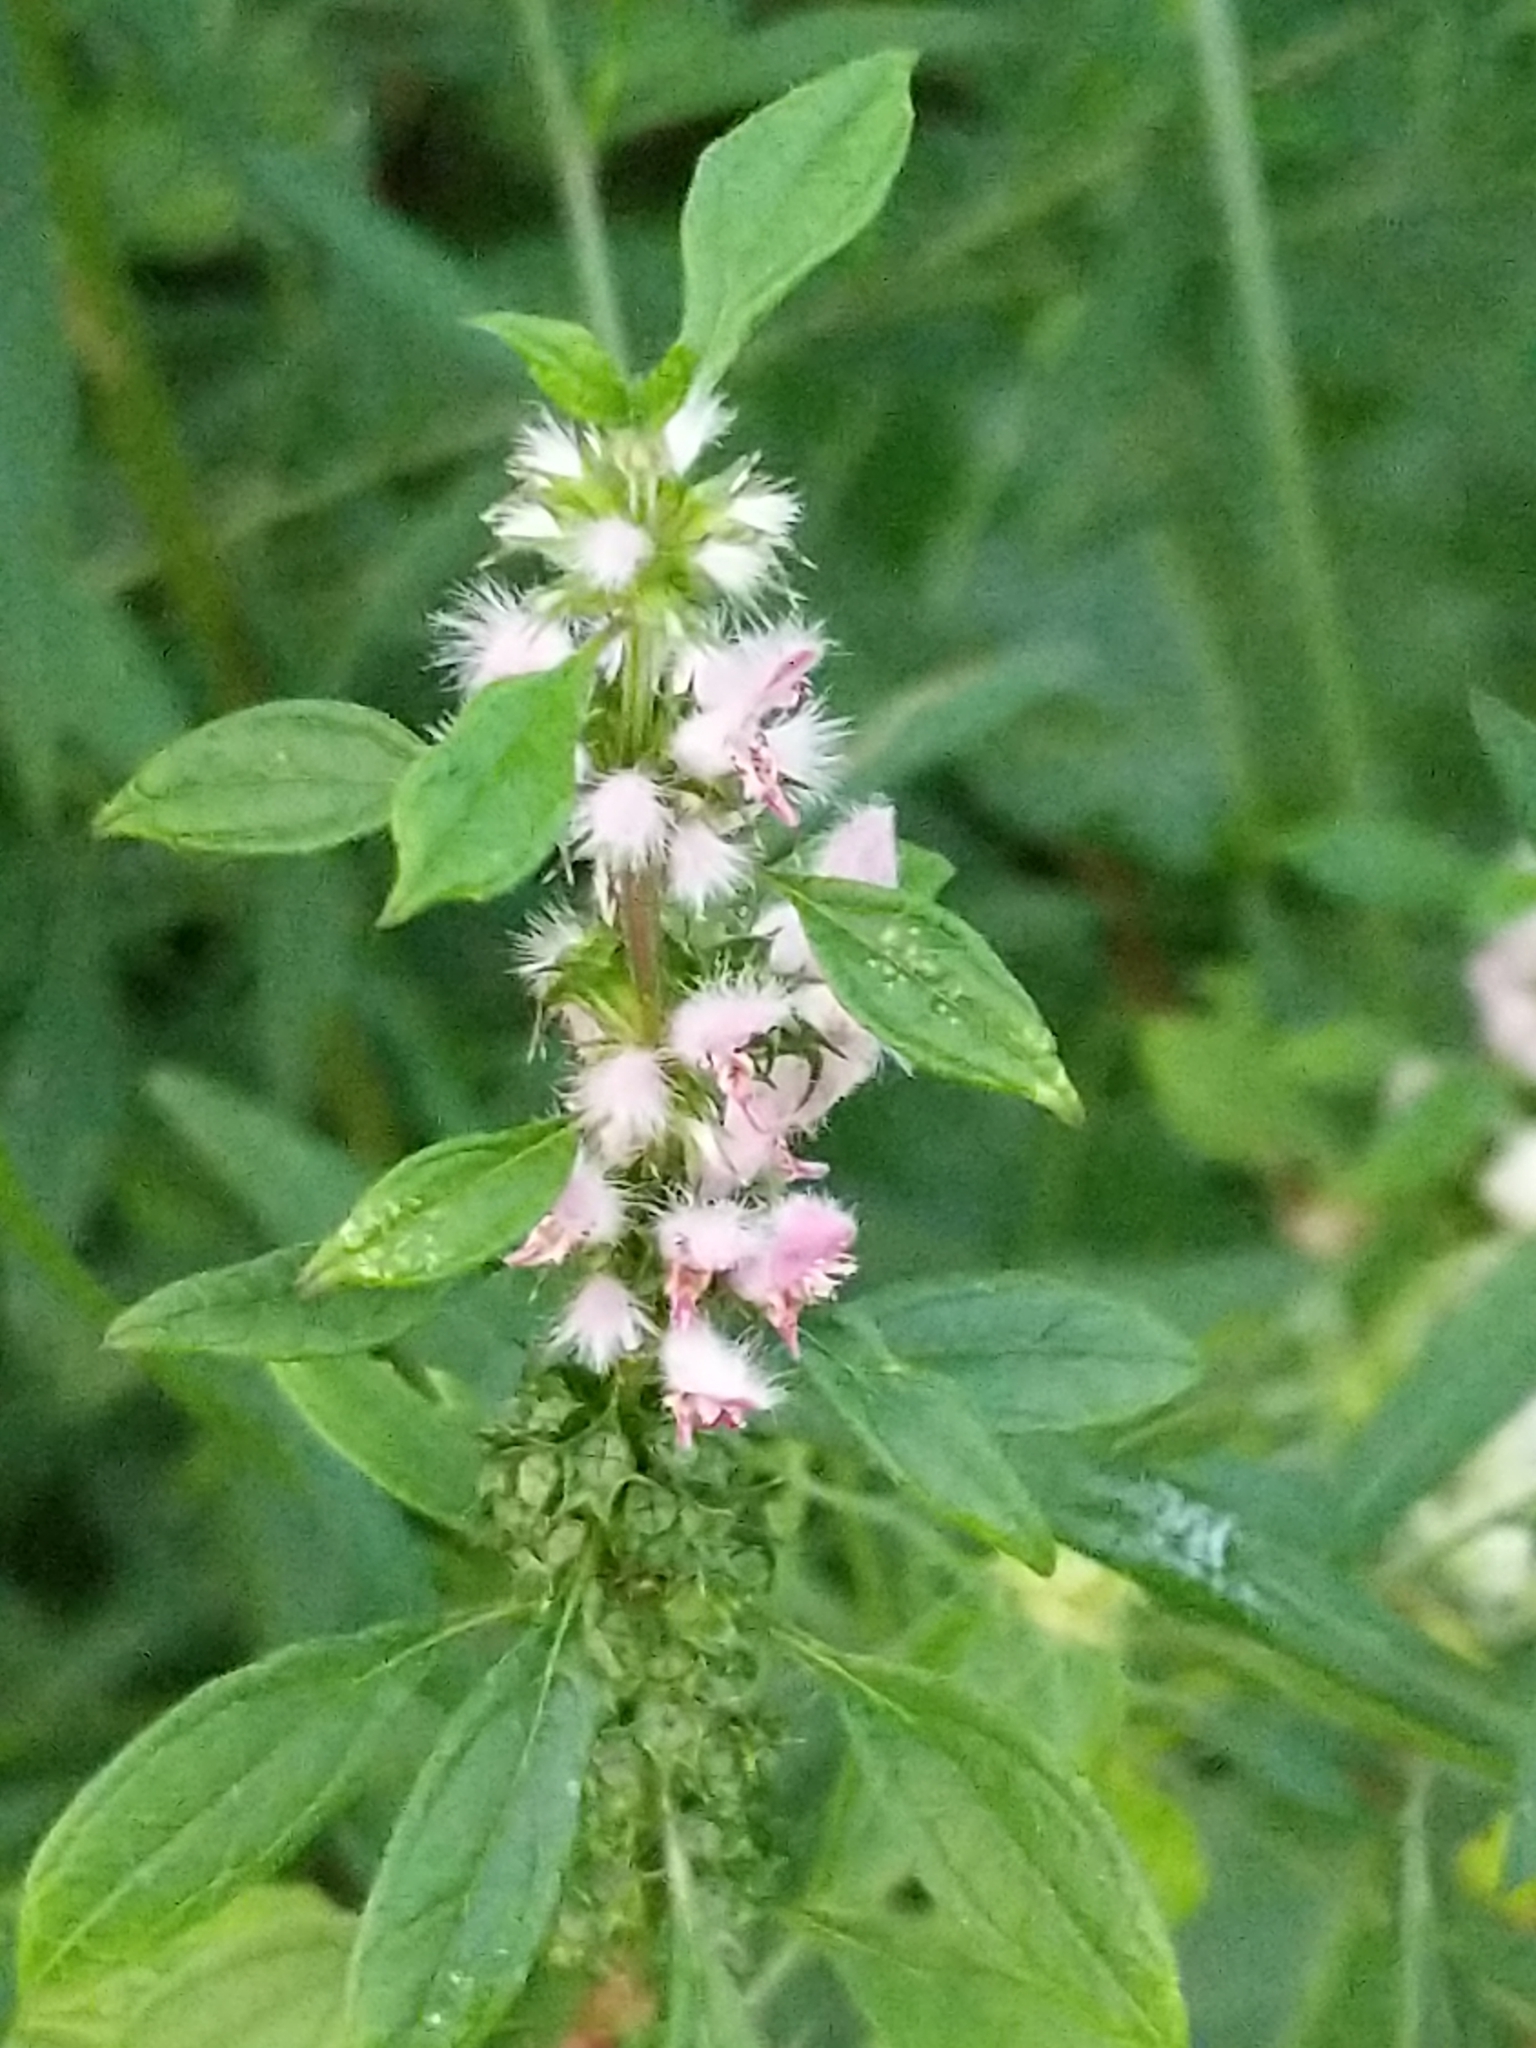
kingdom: Plantae
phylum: Tracheophyta
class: Magnoliopsida
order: Lamiales
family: Lamiaceae
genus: Leonurus
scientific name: Leonurus cardiaca
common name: Motherwort
